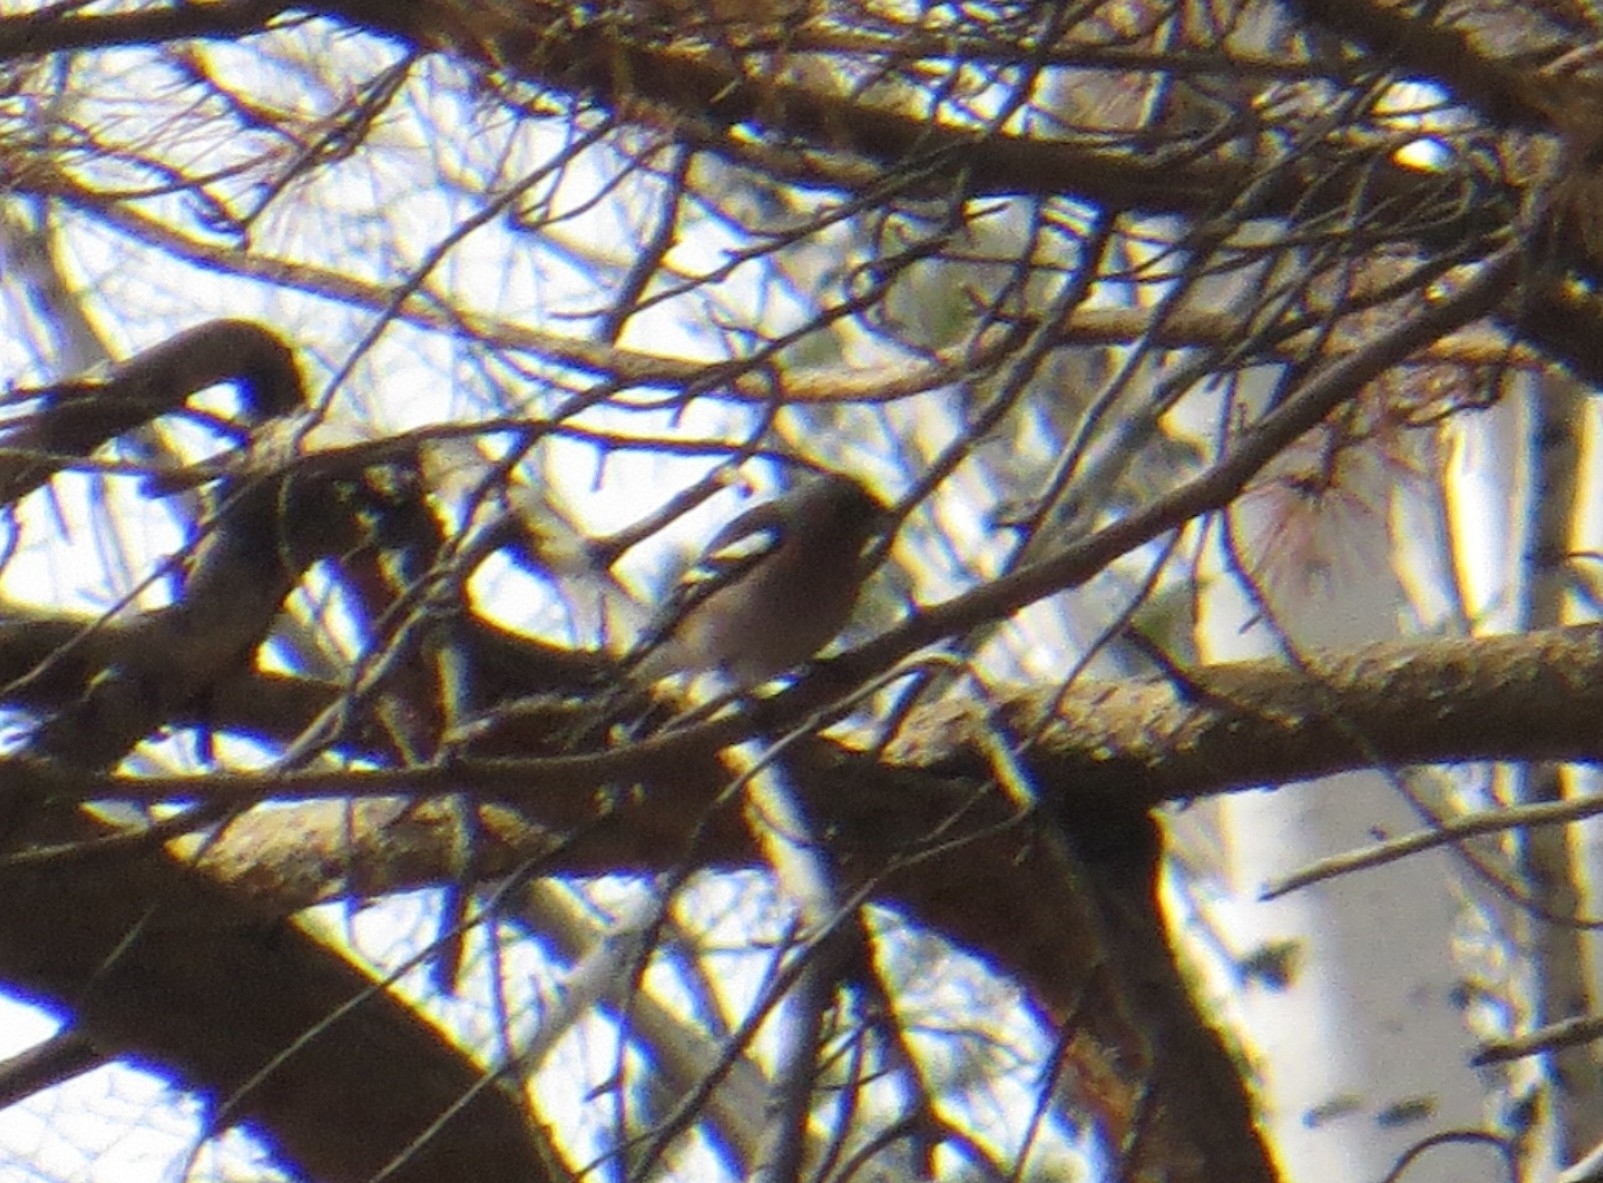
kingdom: Animalia
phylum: Chordata
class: Aves
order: Passeriformes
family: Fringillidae
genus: Fringilla
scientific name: Fringilla coelebs
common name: Common chaffinch
